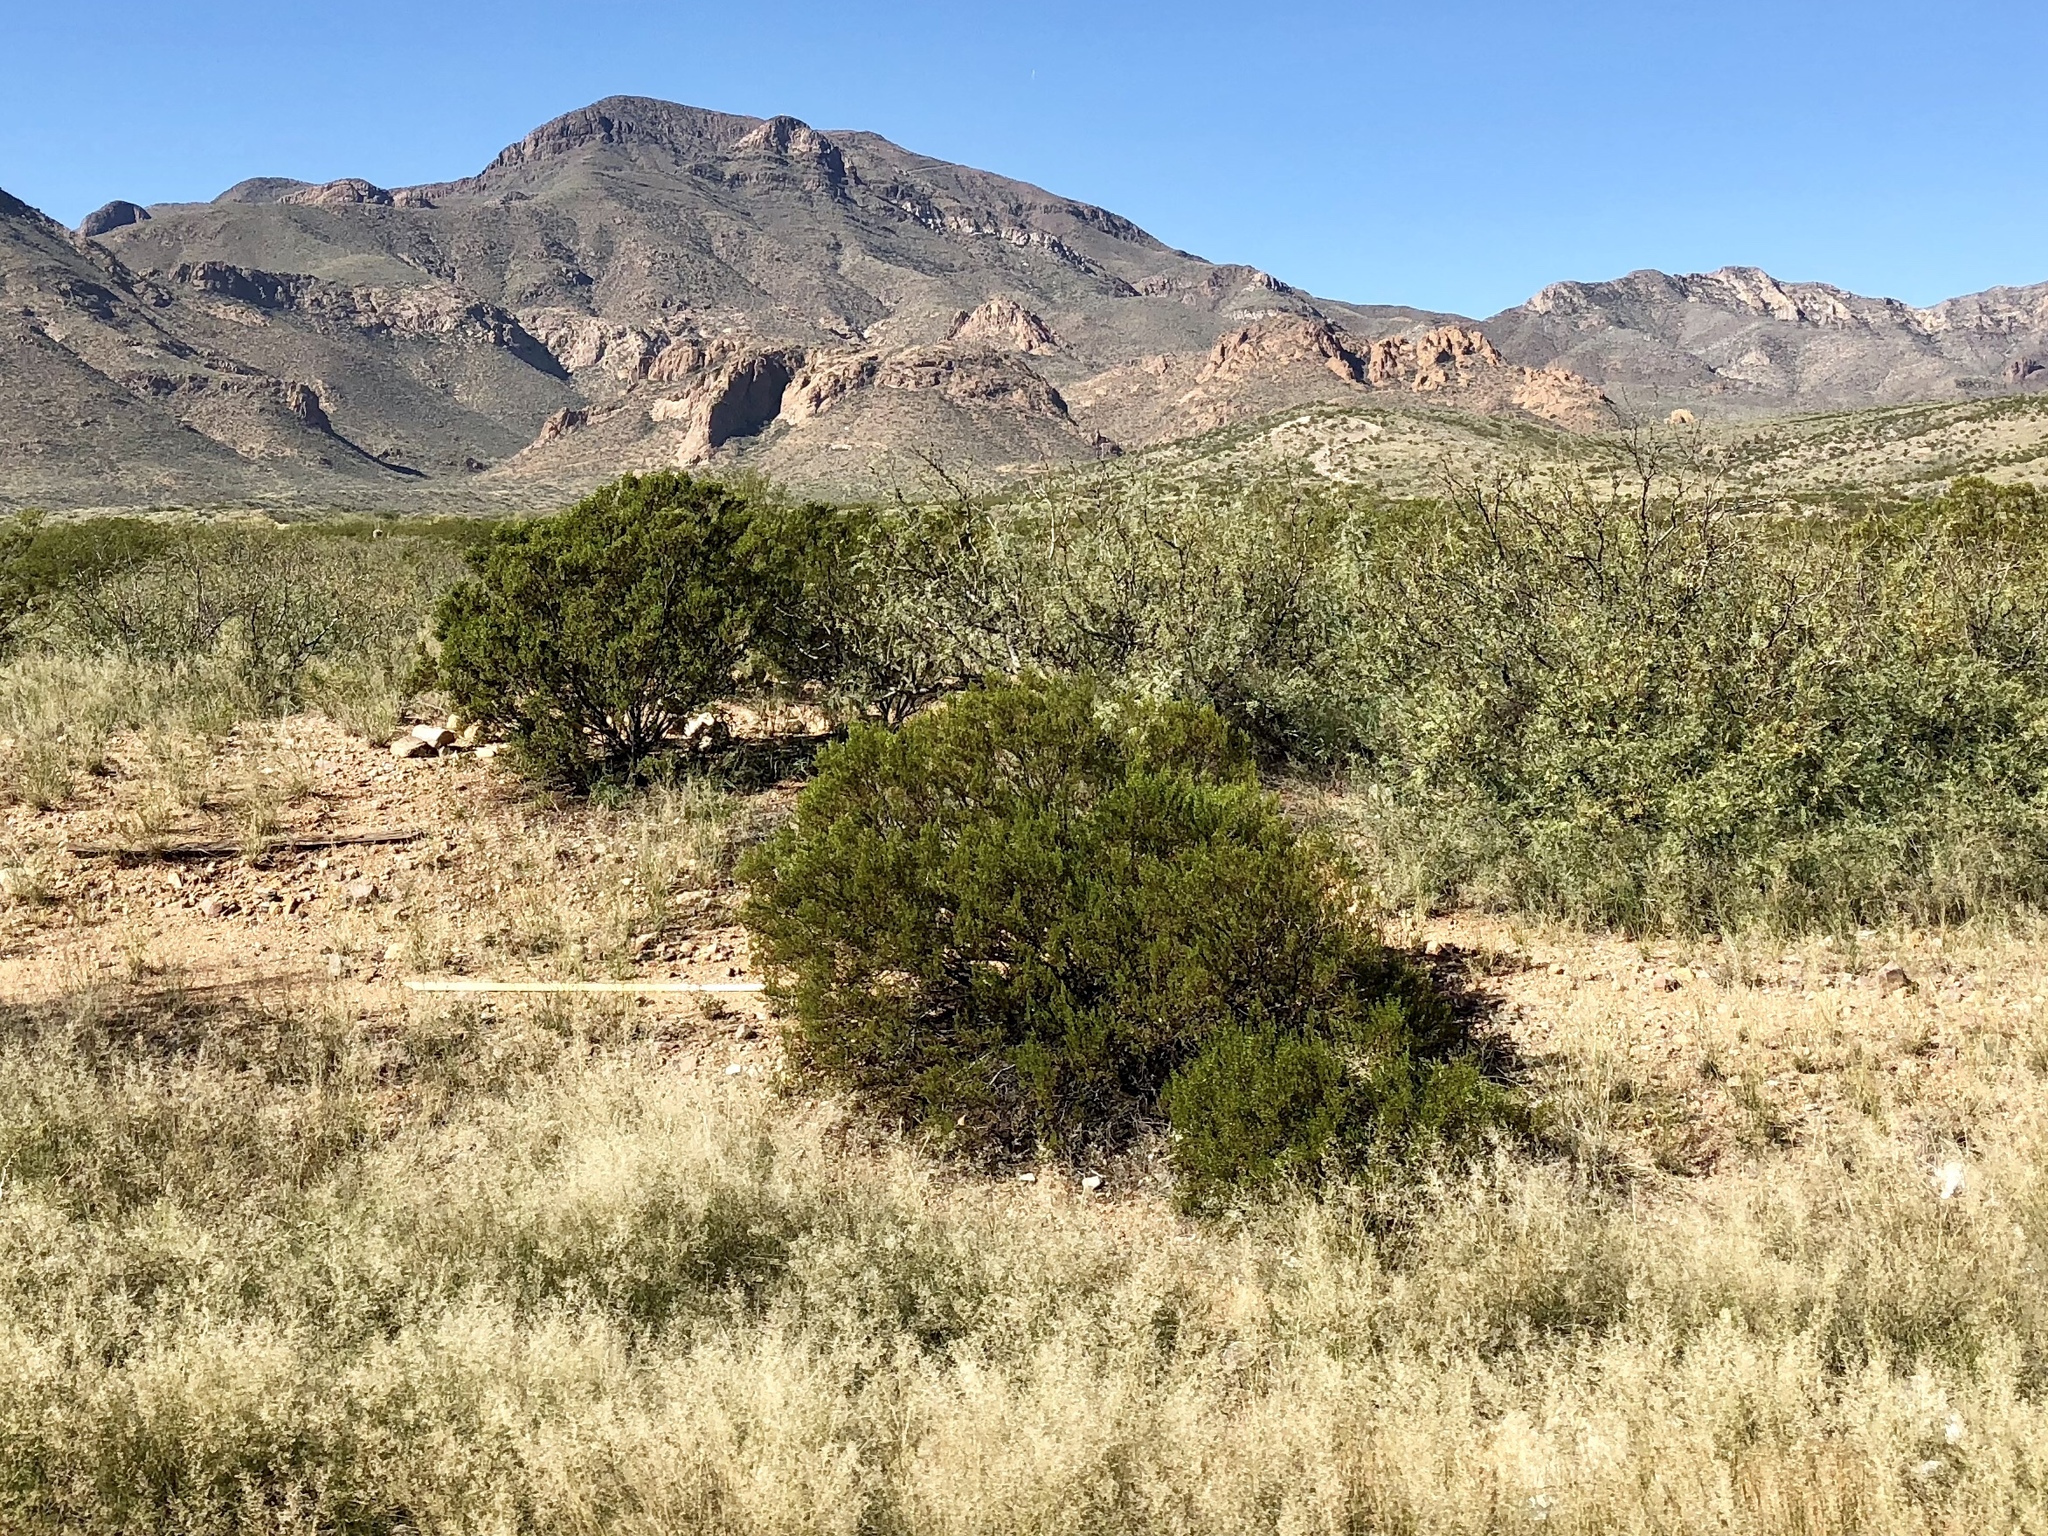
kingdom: Plantae
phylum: Tracheophyta
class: Magnoliopsida
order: Zygophyllales
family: Zygophyllaceae
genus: Larrea
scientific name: Larrea tridentata
